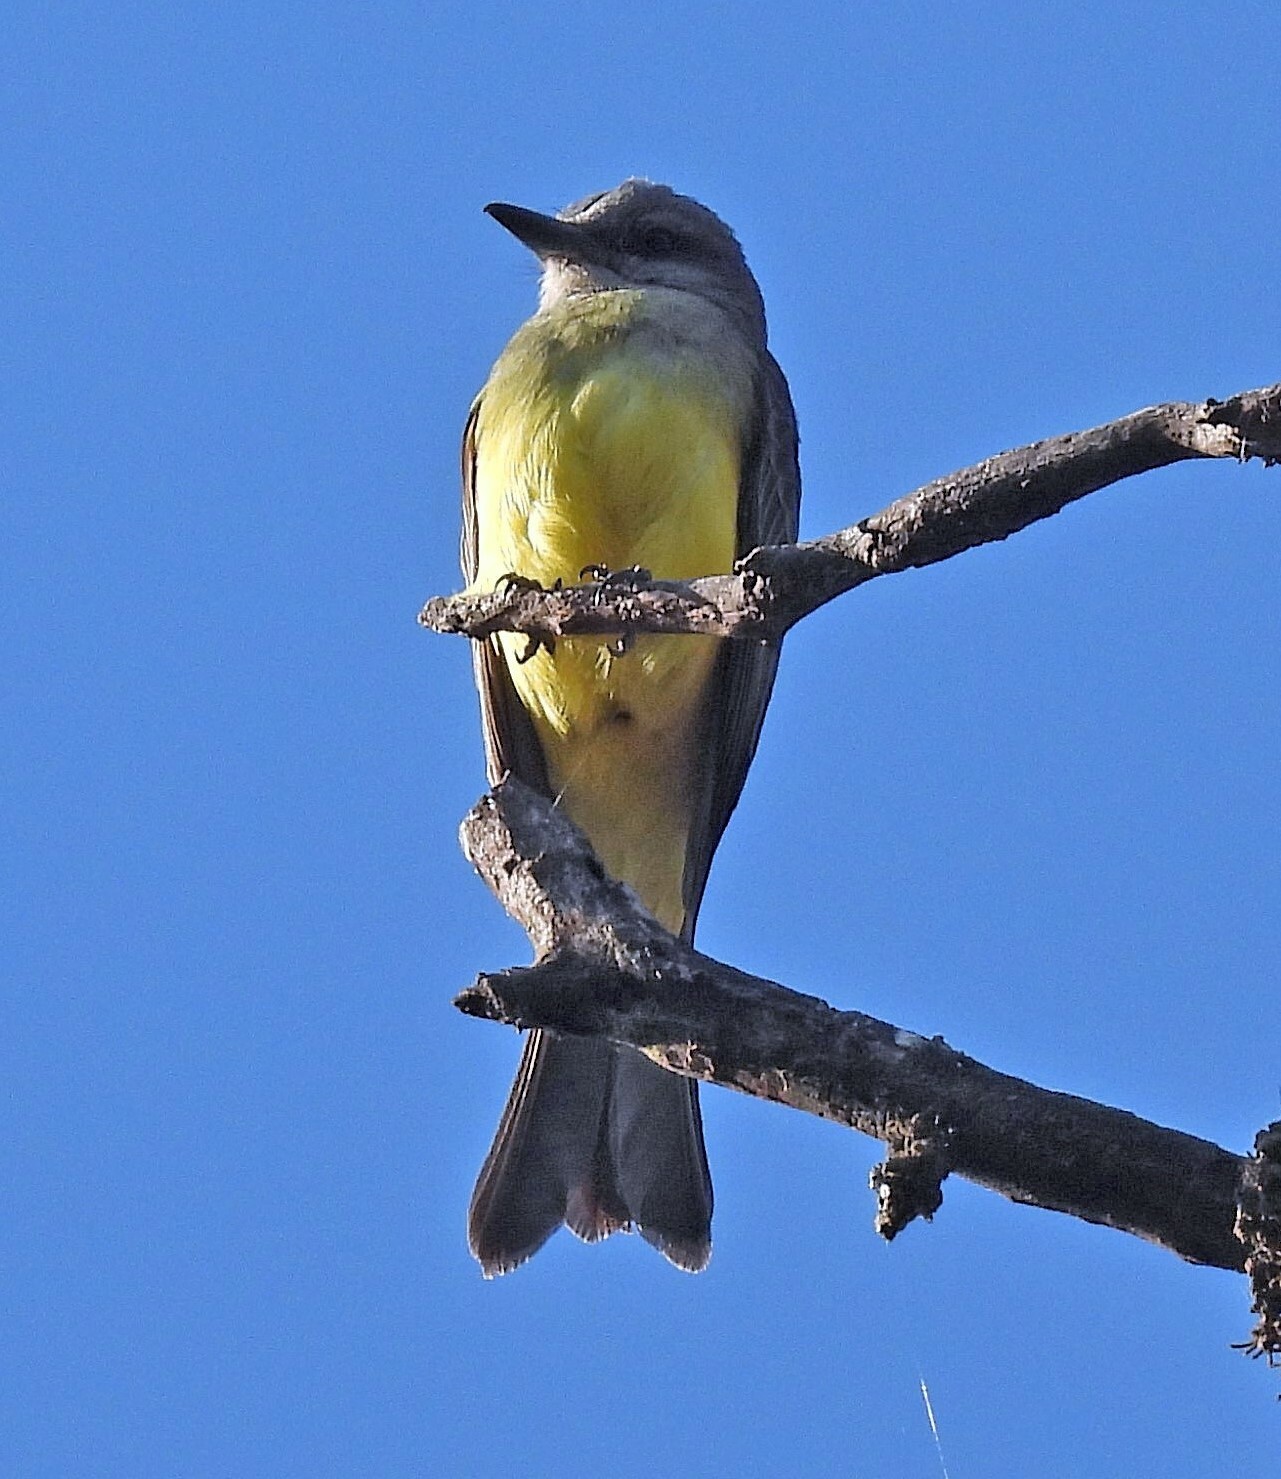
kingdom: Animalia
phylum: Chordata
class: Aves
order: Passeriformes
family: Tyrannidae
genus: Tyrannus
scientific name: Tyrannus melancholicus
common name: Tropical kingbird
